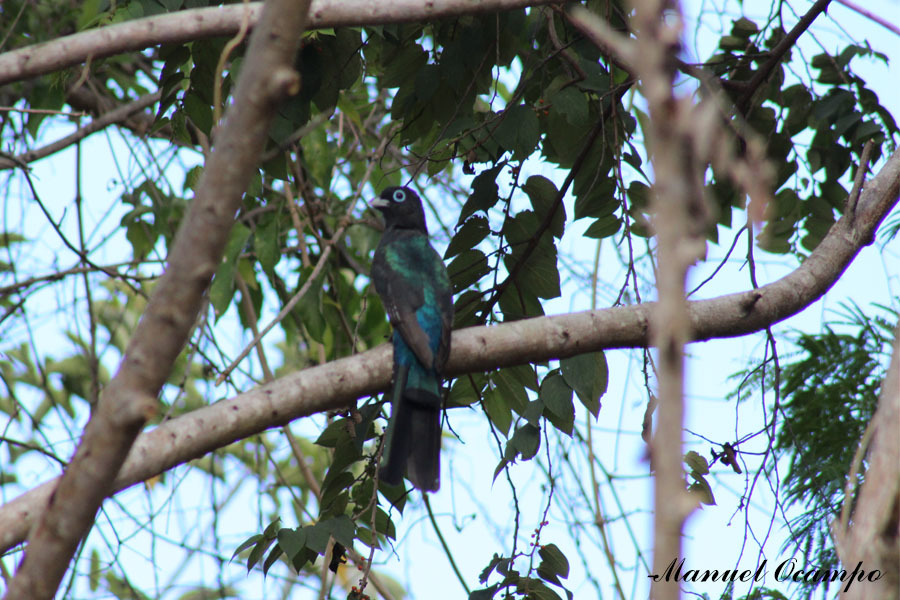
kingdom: Animalia
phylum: Chordata
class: Aves
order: Trogoniformes
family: Trogonidae
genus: Trogon
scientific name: Trogon melanocephalus
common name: Black-headed trogon
